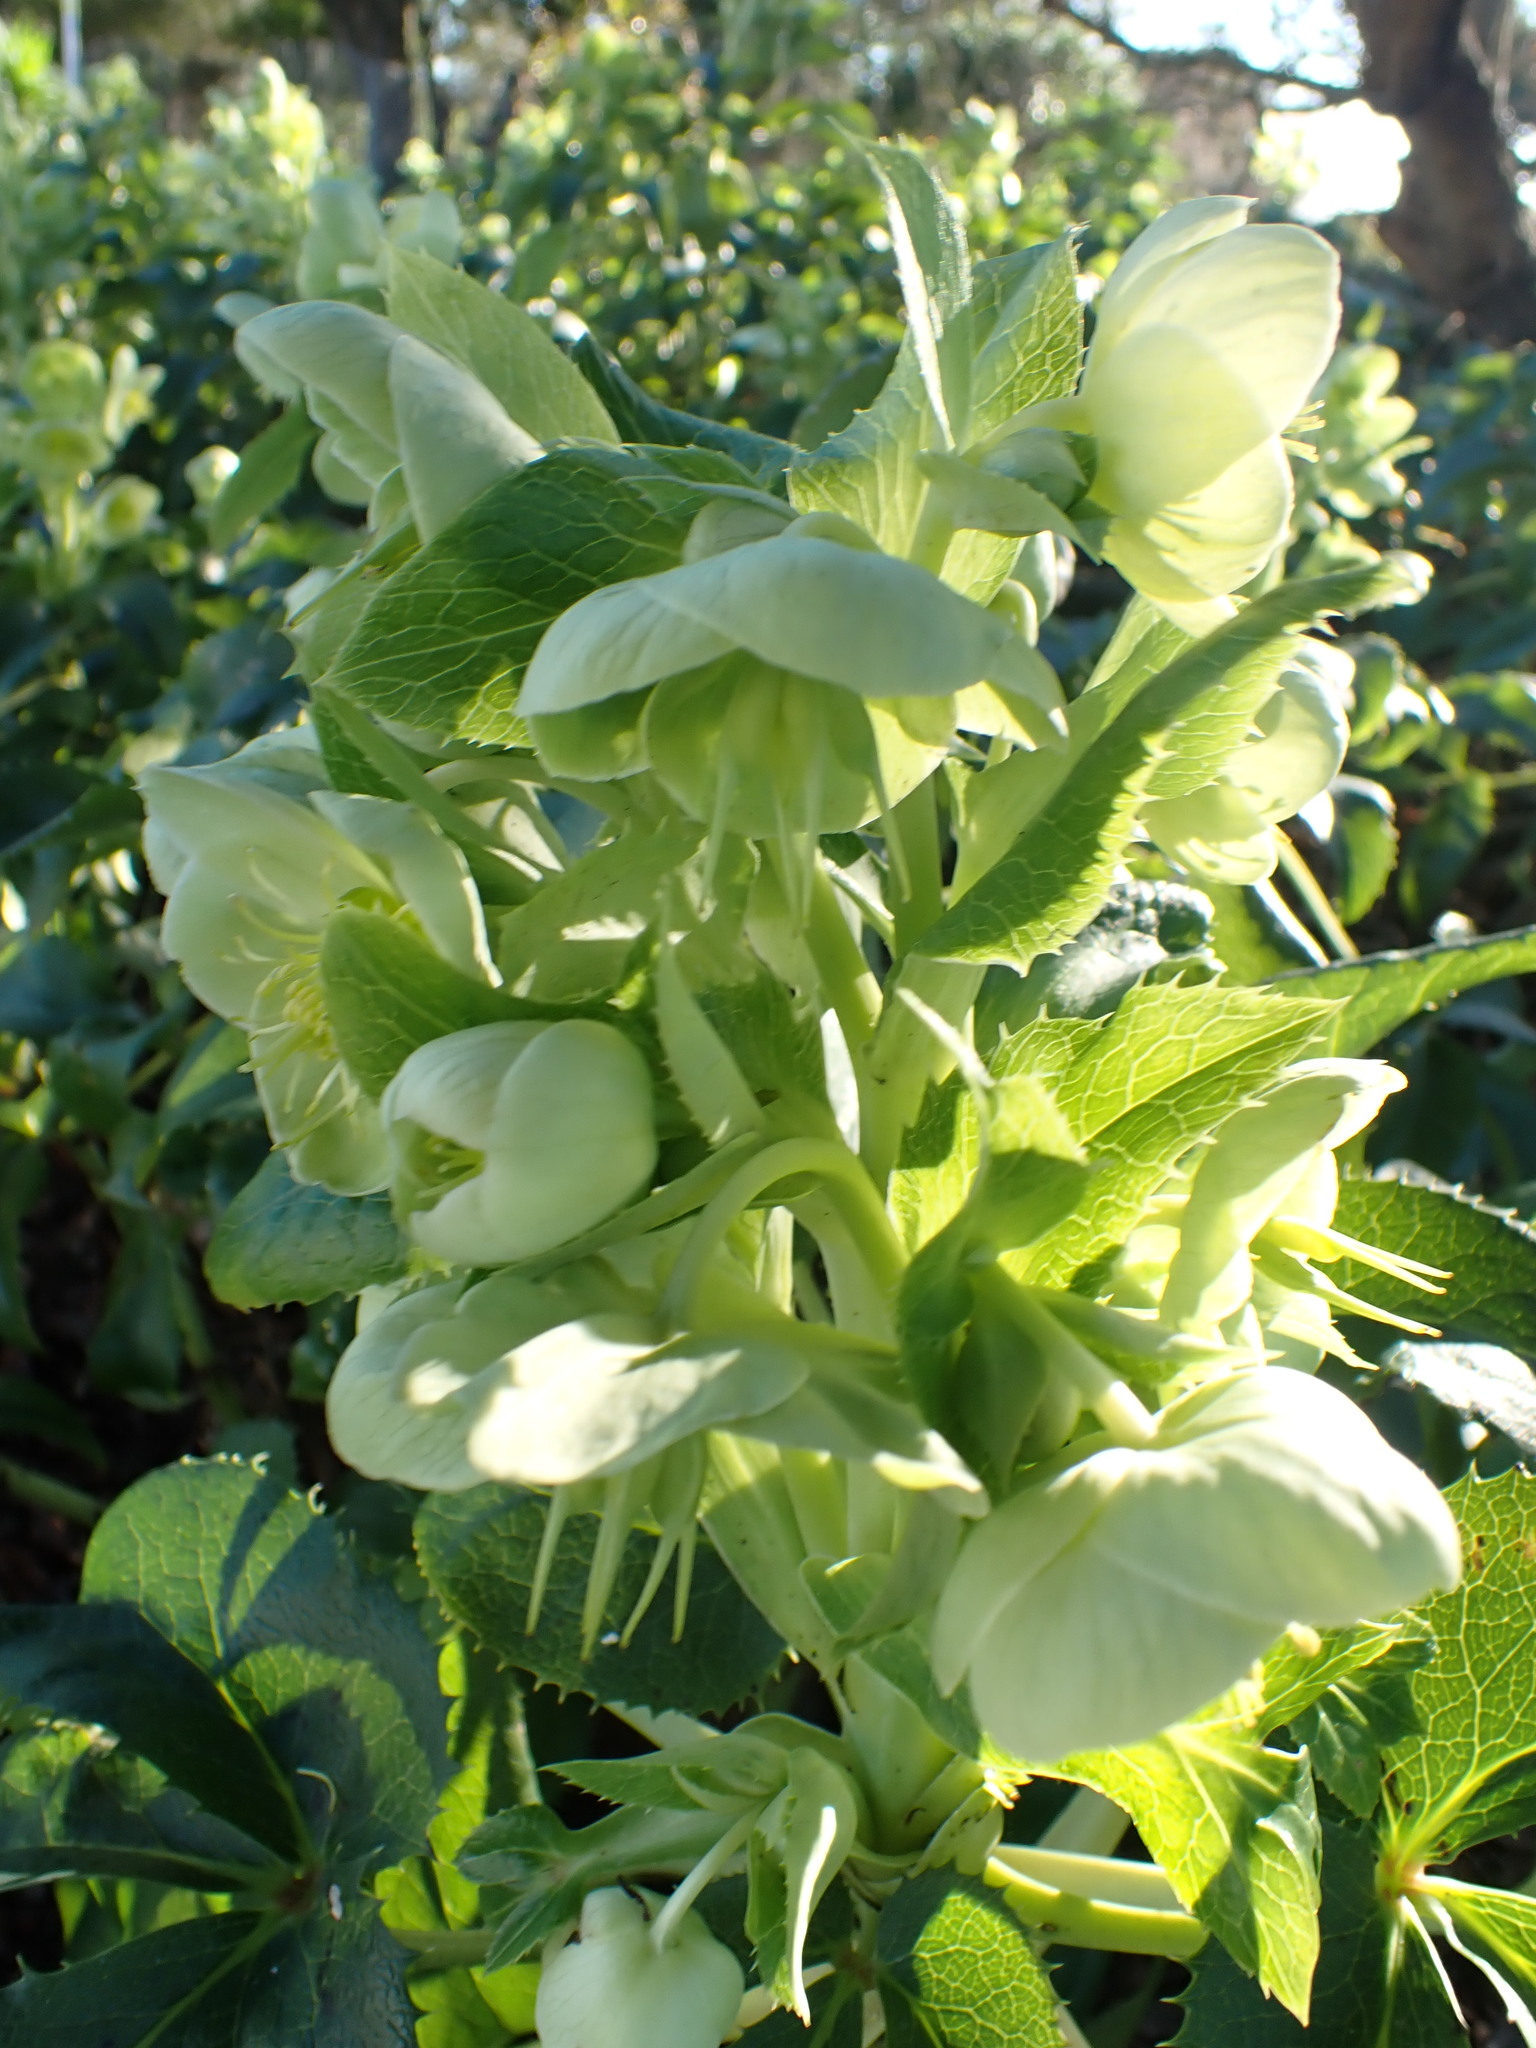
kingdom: Plantae
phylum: Tracheophyta
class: Magnoliopsida
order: Ranunculales
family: Ranunculaceae
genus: Helleborus
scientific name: Helleborus argutifolius
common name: Corsican hellebore
